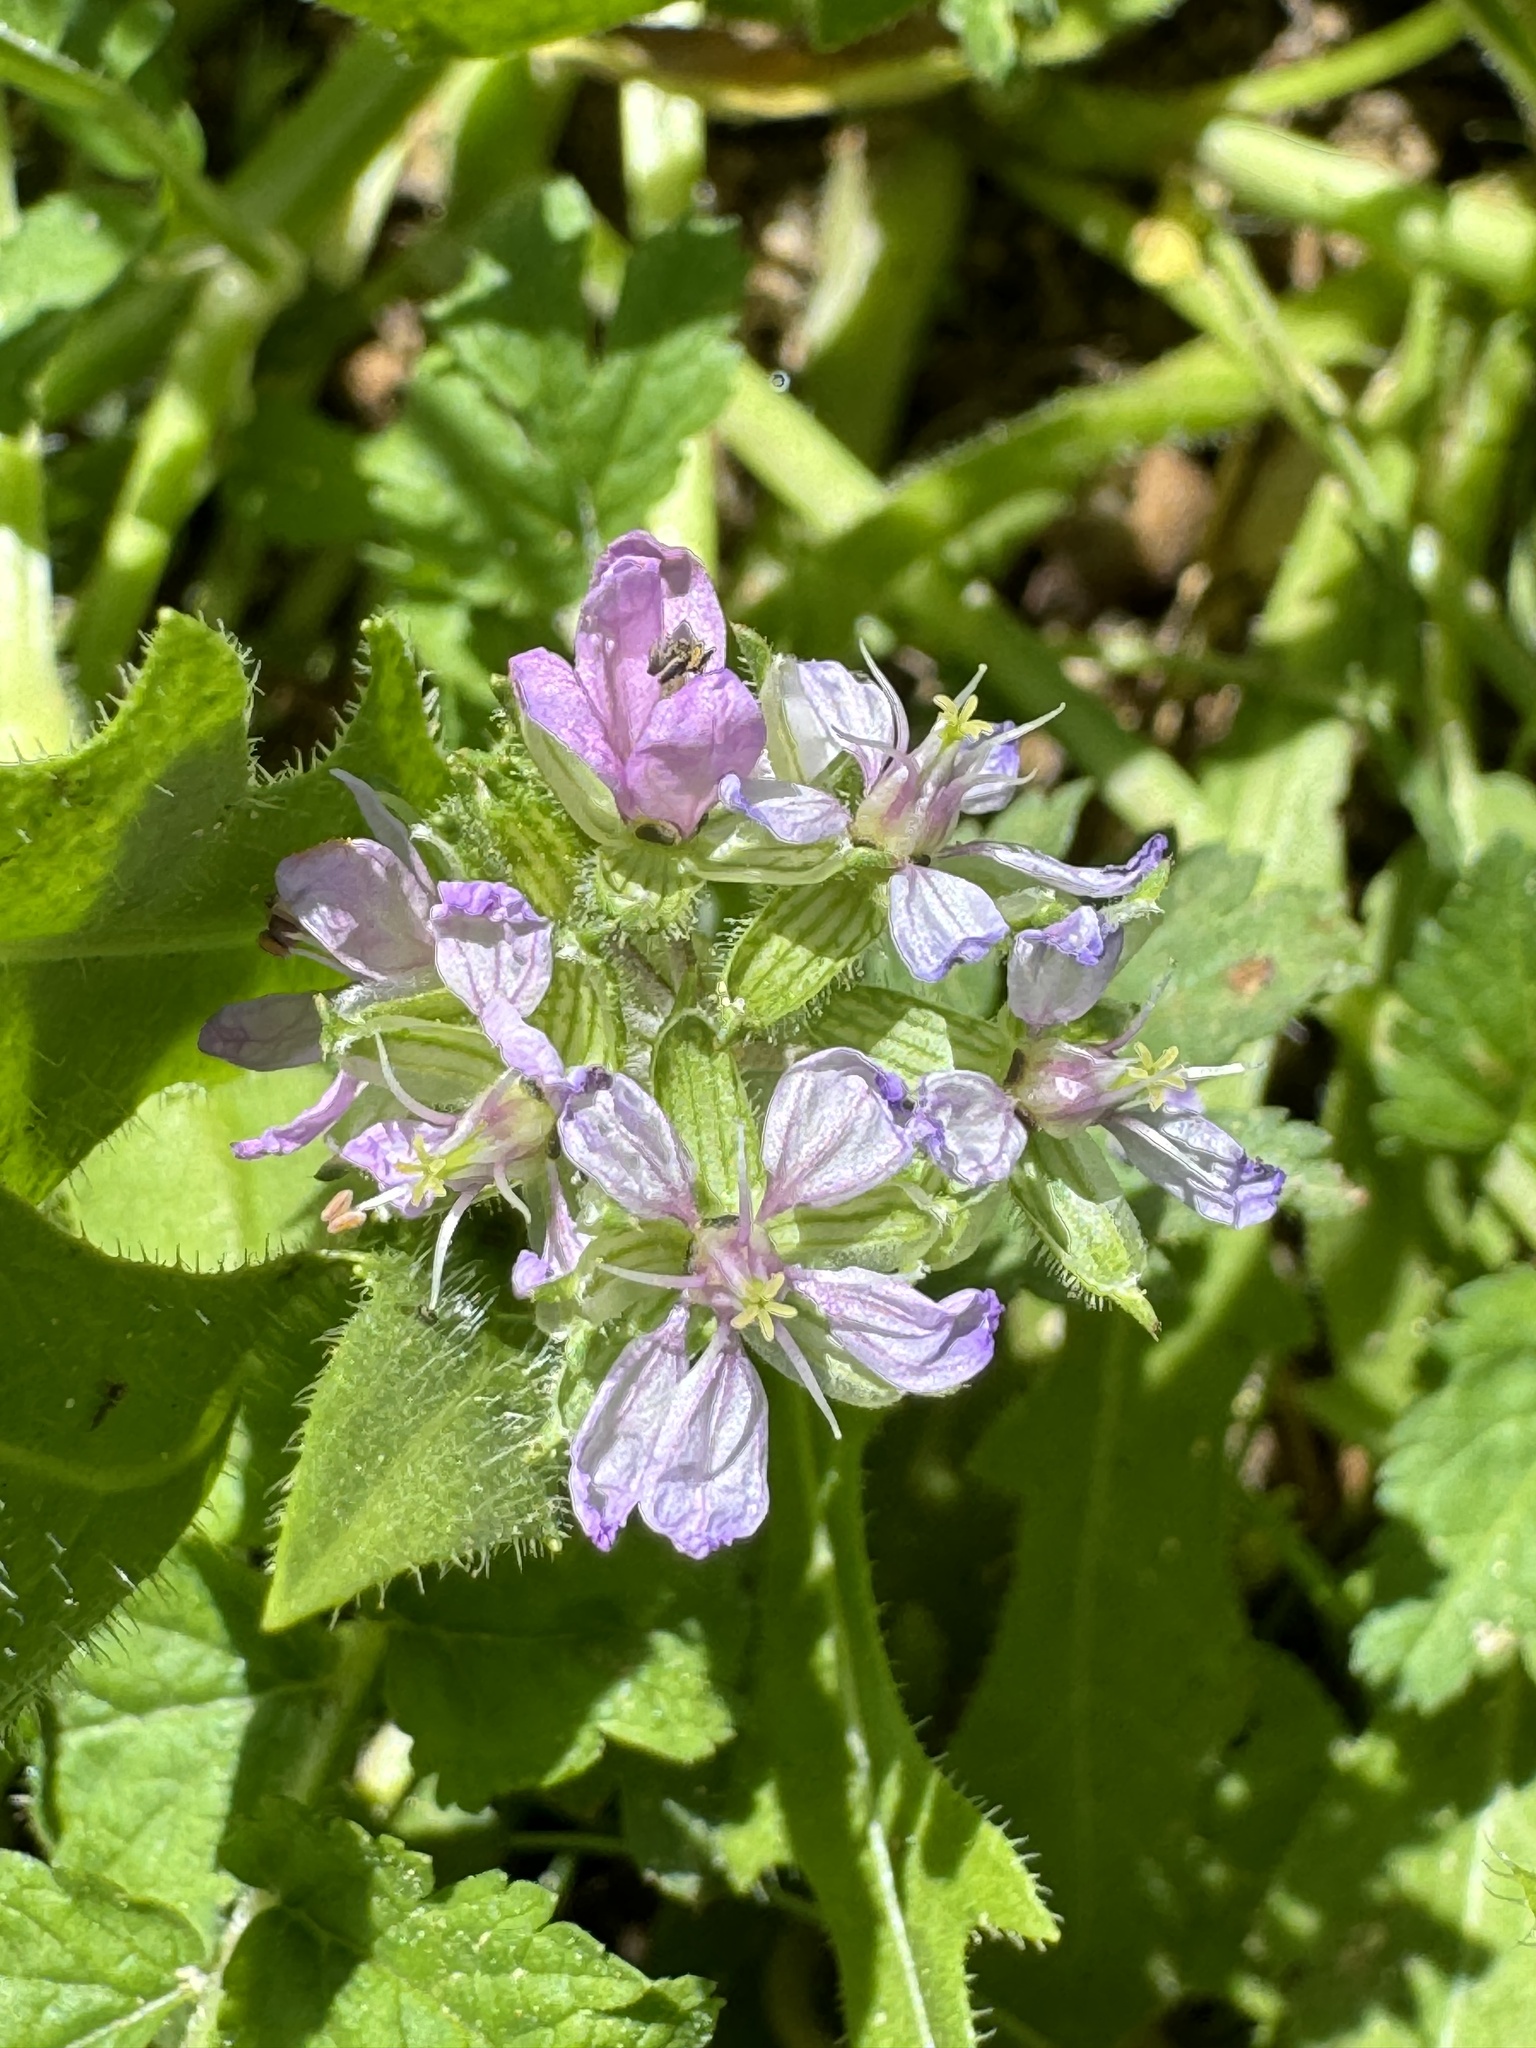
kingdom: Plantae
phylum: Tracheophyta
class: Magnoliopsida
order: Geraniales
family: Geraniaceae
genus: Erodium
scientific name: Erodium moschatum
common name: Musk stork's-bill
